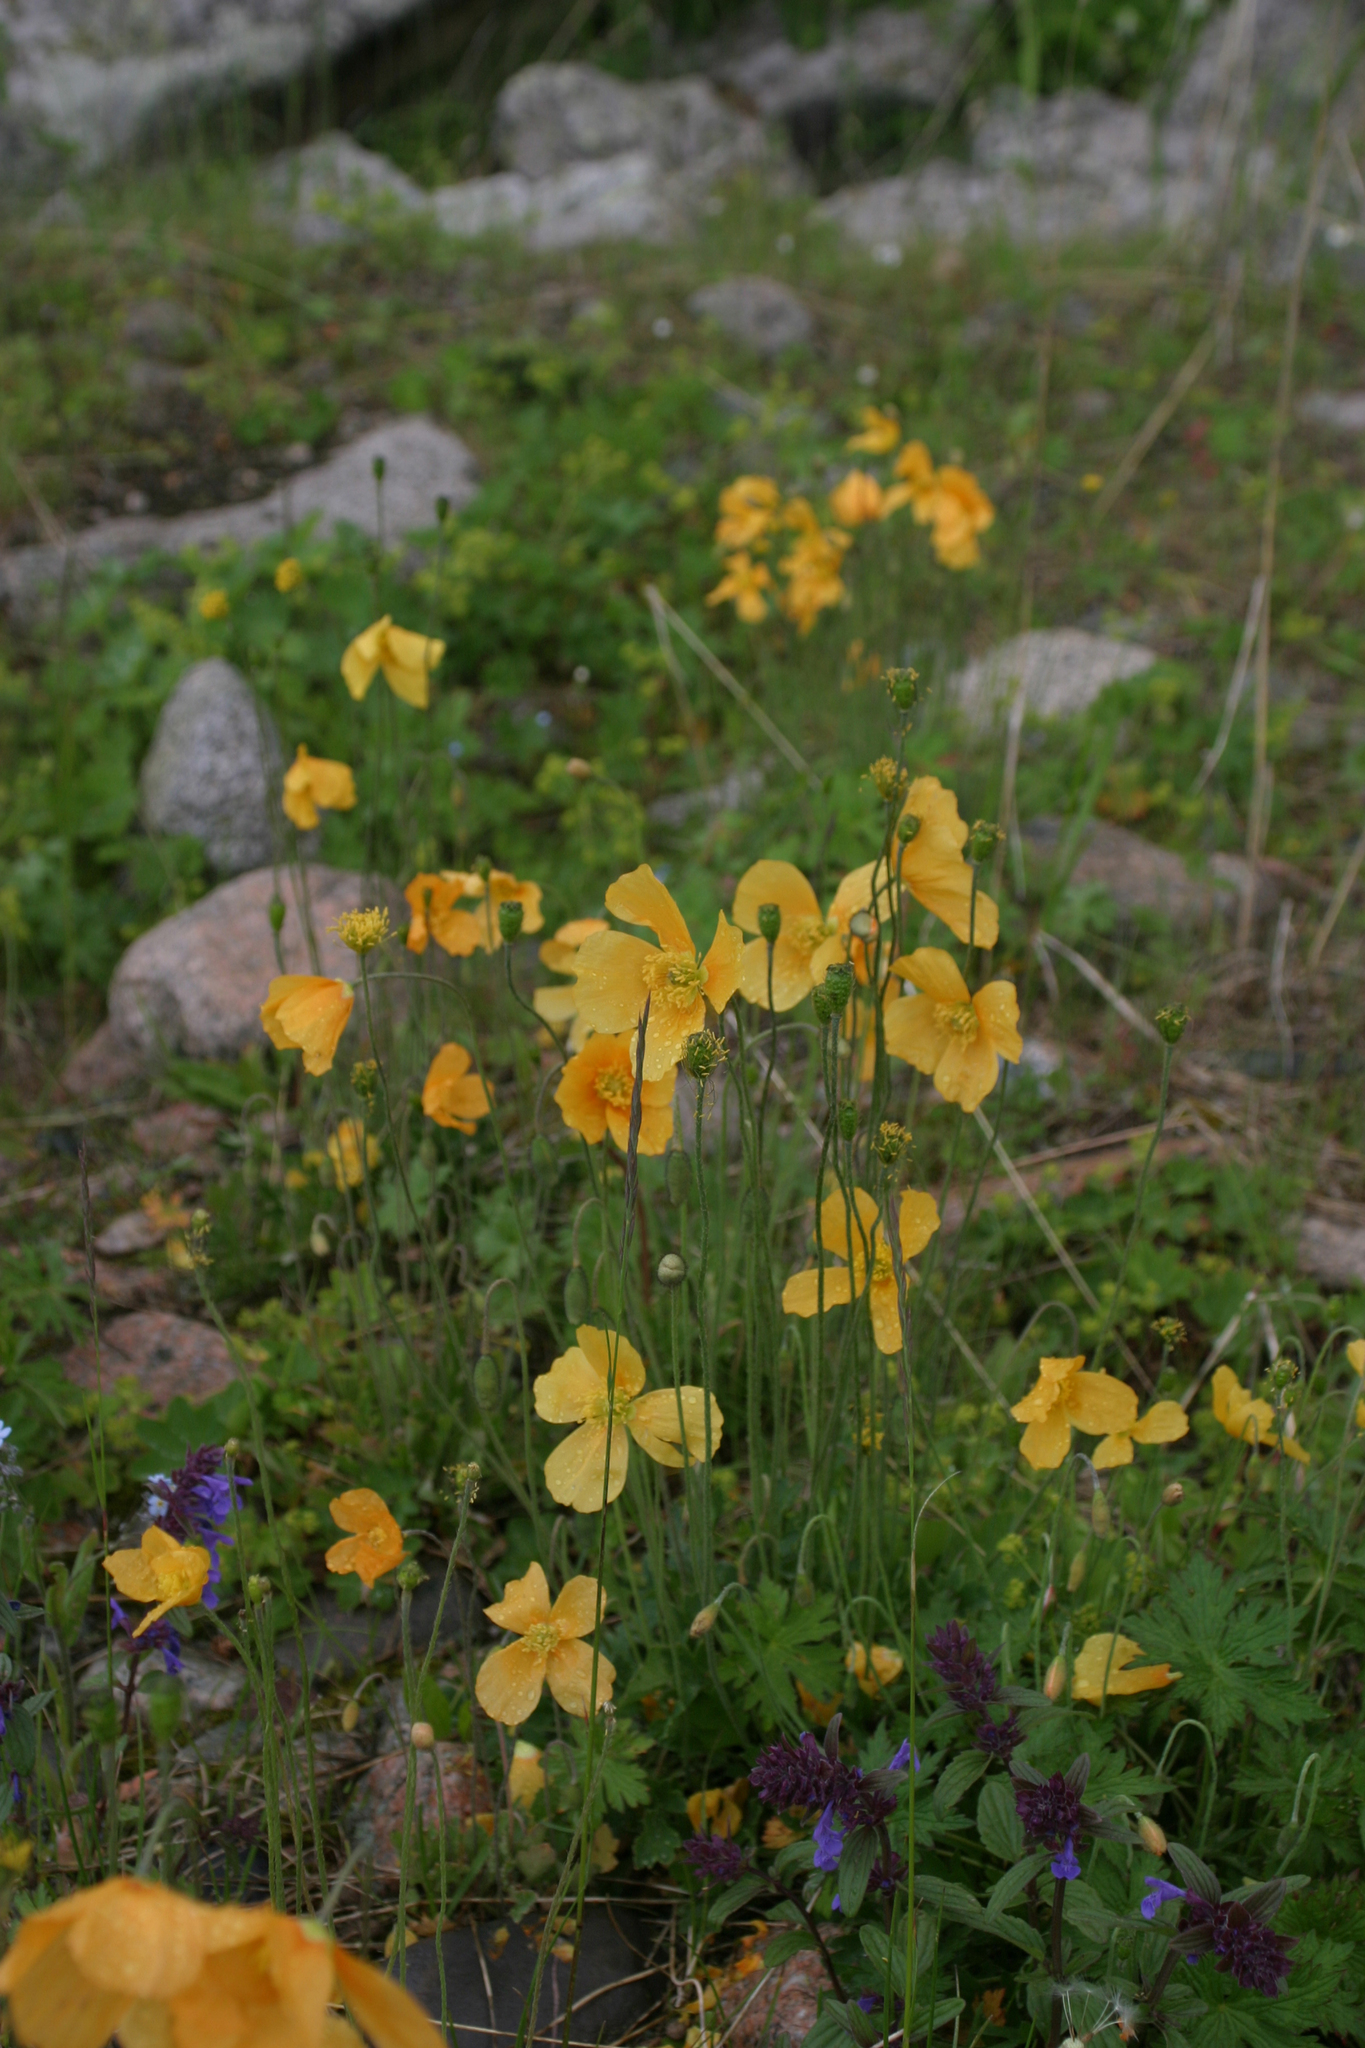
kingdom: Plantae
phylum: Tracheophyta
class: Magnoliopsida
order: Ranunculales
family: Papaveraceae
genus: Oreomecon
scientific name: Oreomecon
